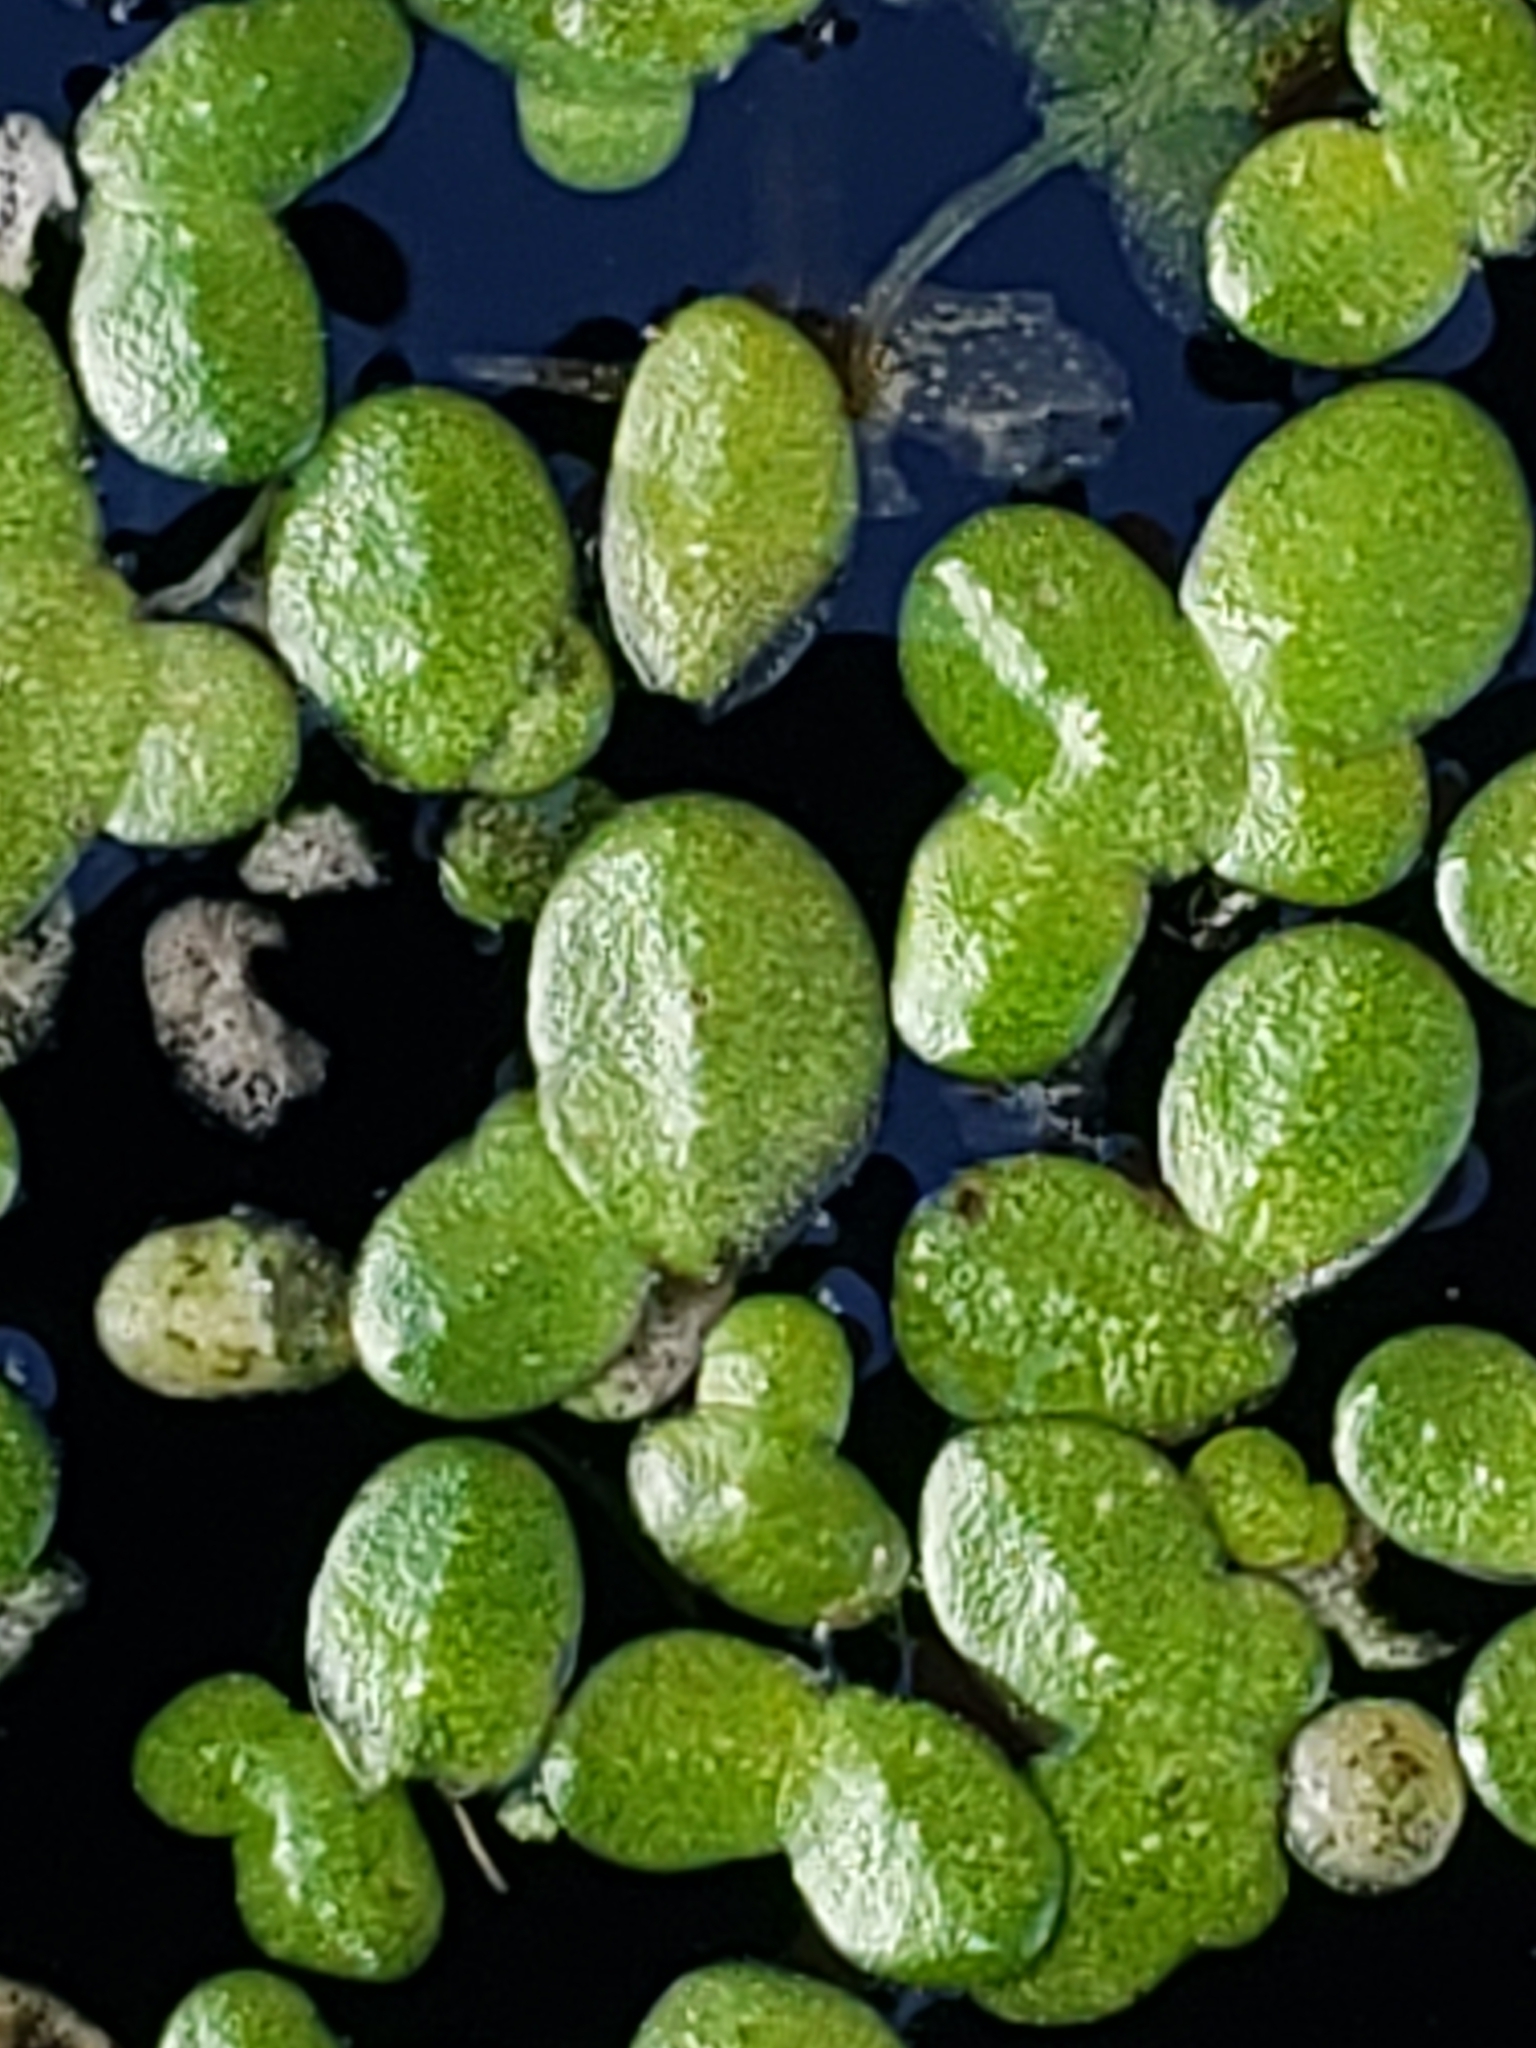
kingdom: Plantae
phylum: Tracheophyta
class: Liliopsida
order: Alismatales
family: Araceae
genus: Lemna
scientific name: Lemna minor
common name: Common duckweed
